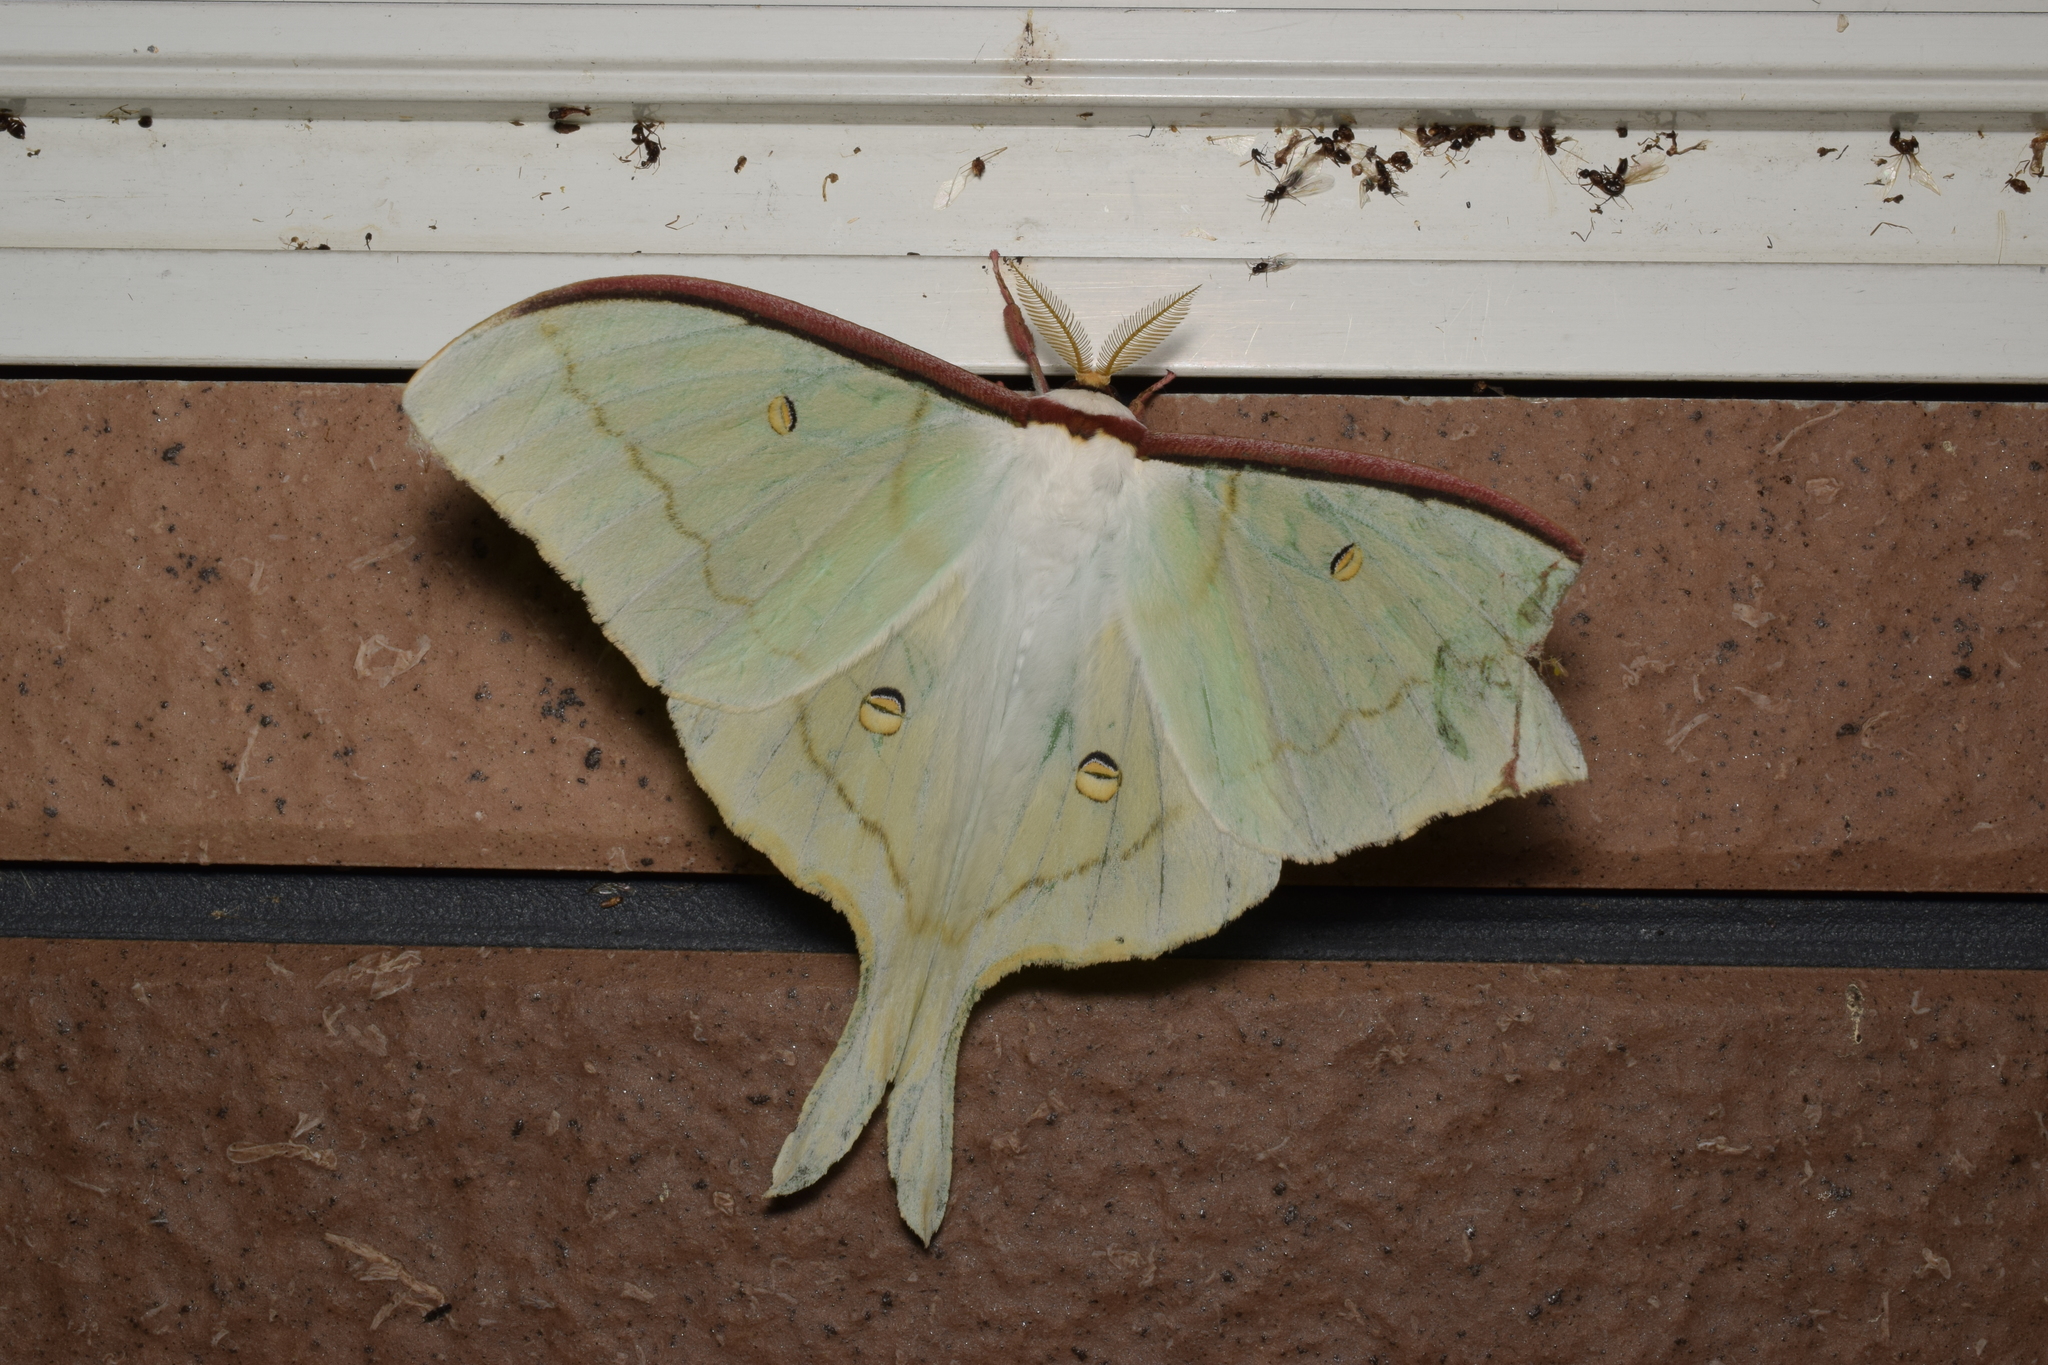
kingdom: Animalia
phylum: Arthropoda
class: Insecta
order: Lepidoptera
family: Saturniidae
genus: Actias
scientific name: Actias aliena
